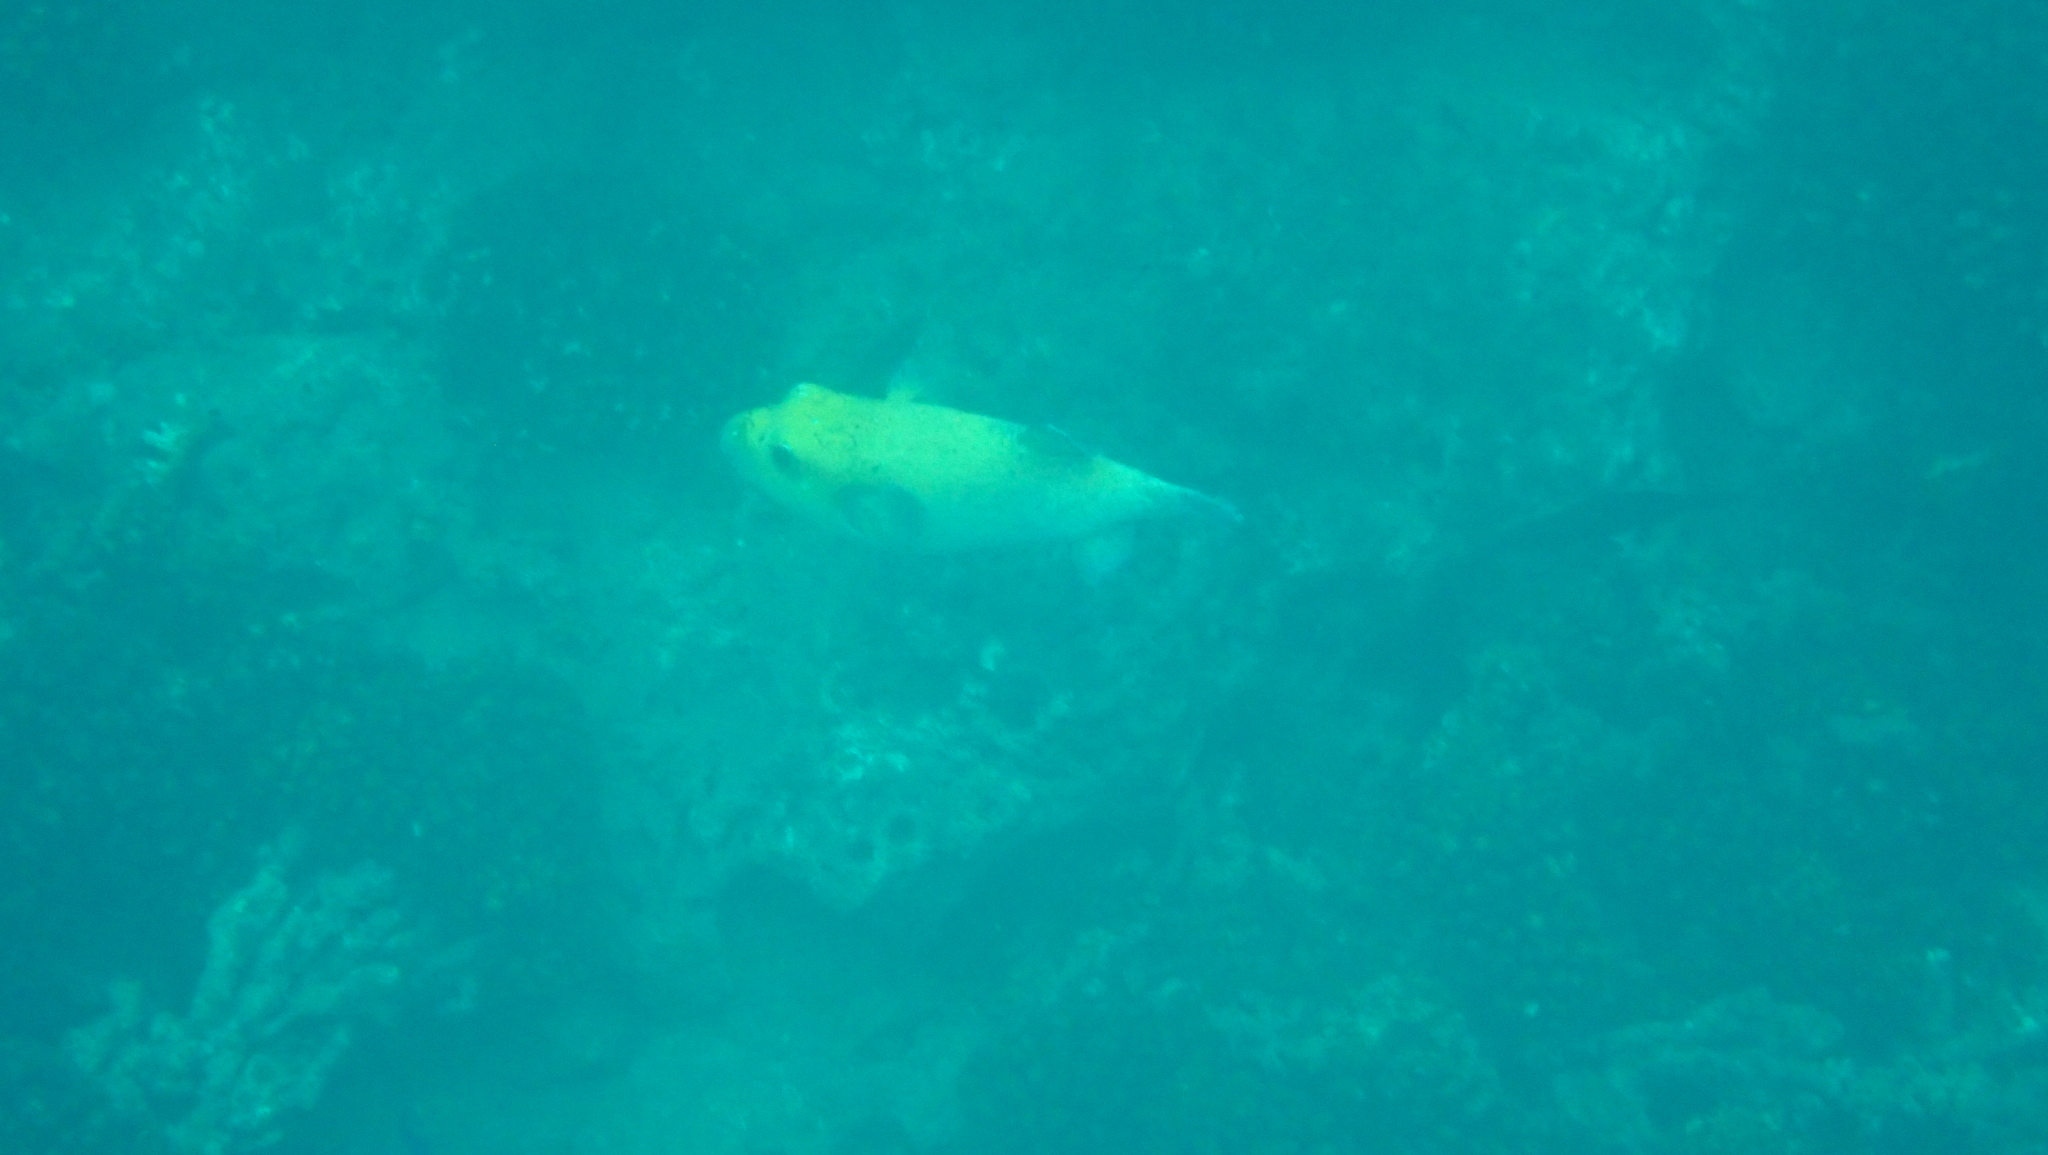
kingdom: Animalia
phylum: Chordata
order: Tetraodontiformes
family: Tetraodontidae
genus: Arothron
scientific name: Arothron meleagris
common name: Guinea-fowl pufferfish
